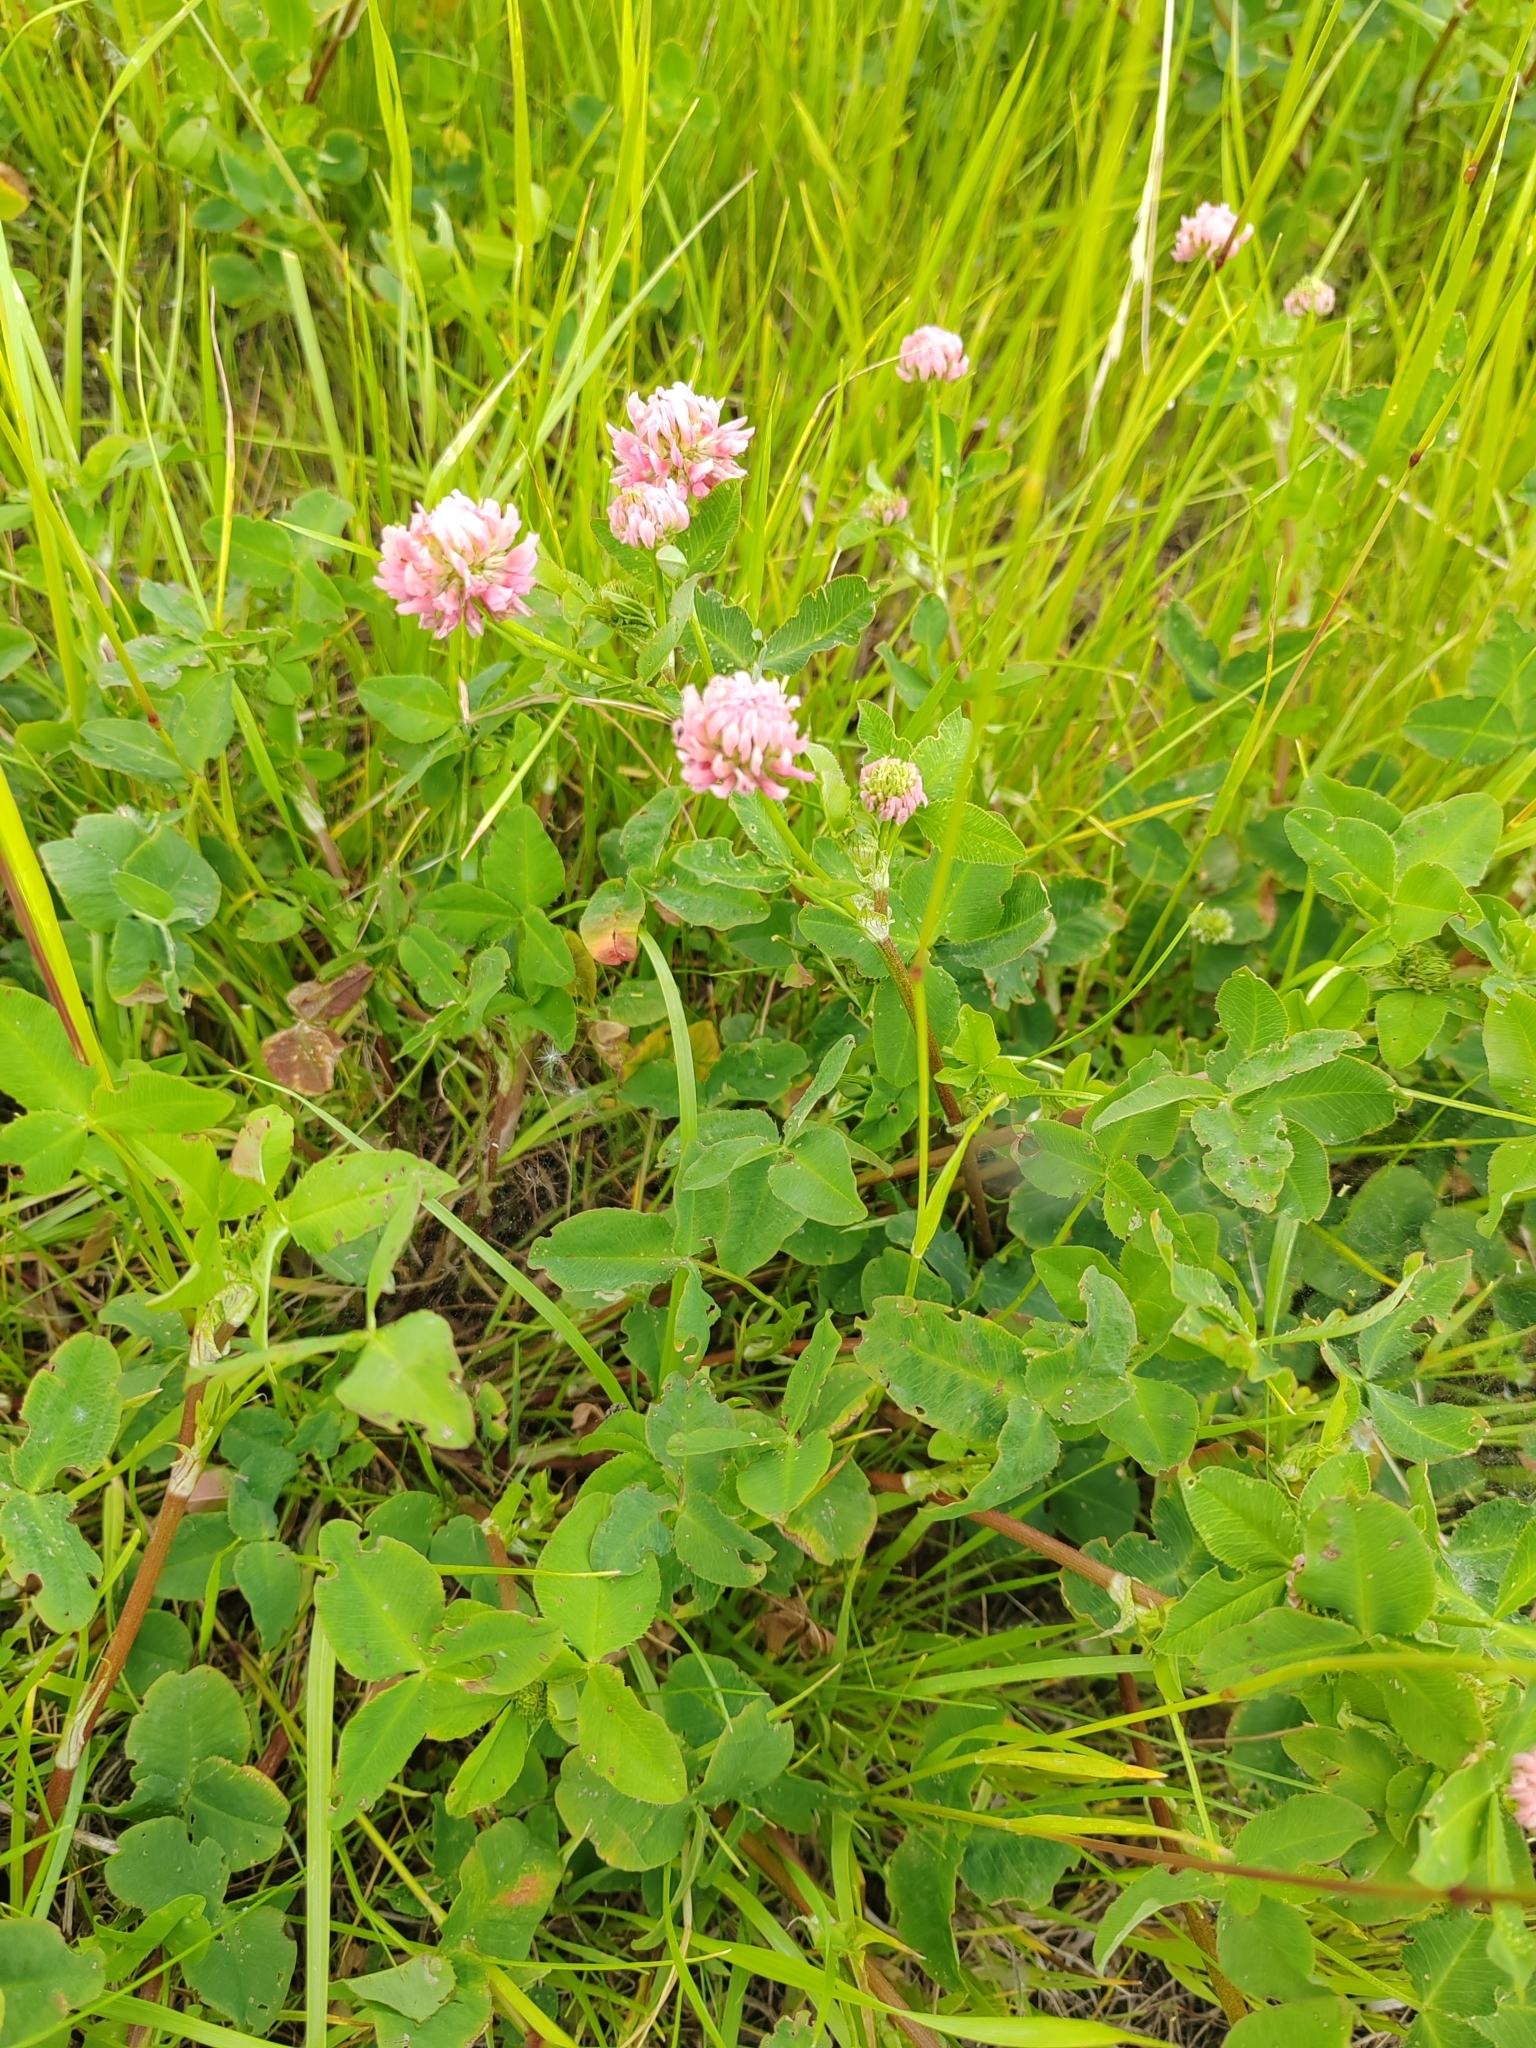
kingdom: Plantae
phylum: Tracheophyta
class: Magnoliopsida
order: Fabales
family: Fabaceae
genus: Trifolium
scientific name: Trifolium hybridum
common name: Alsike clover
